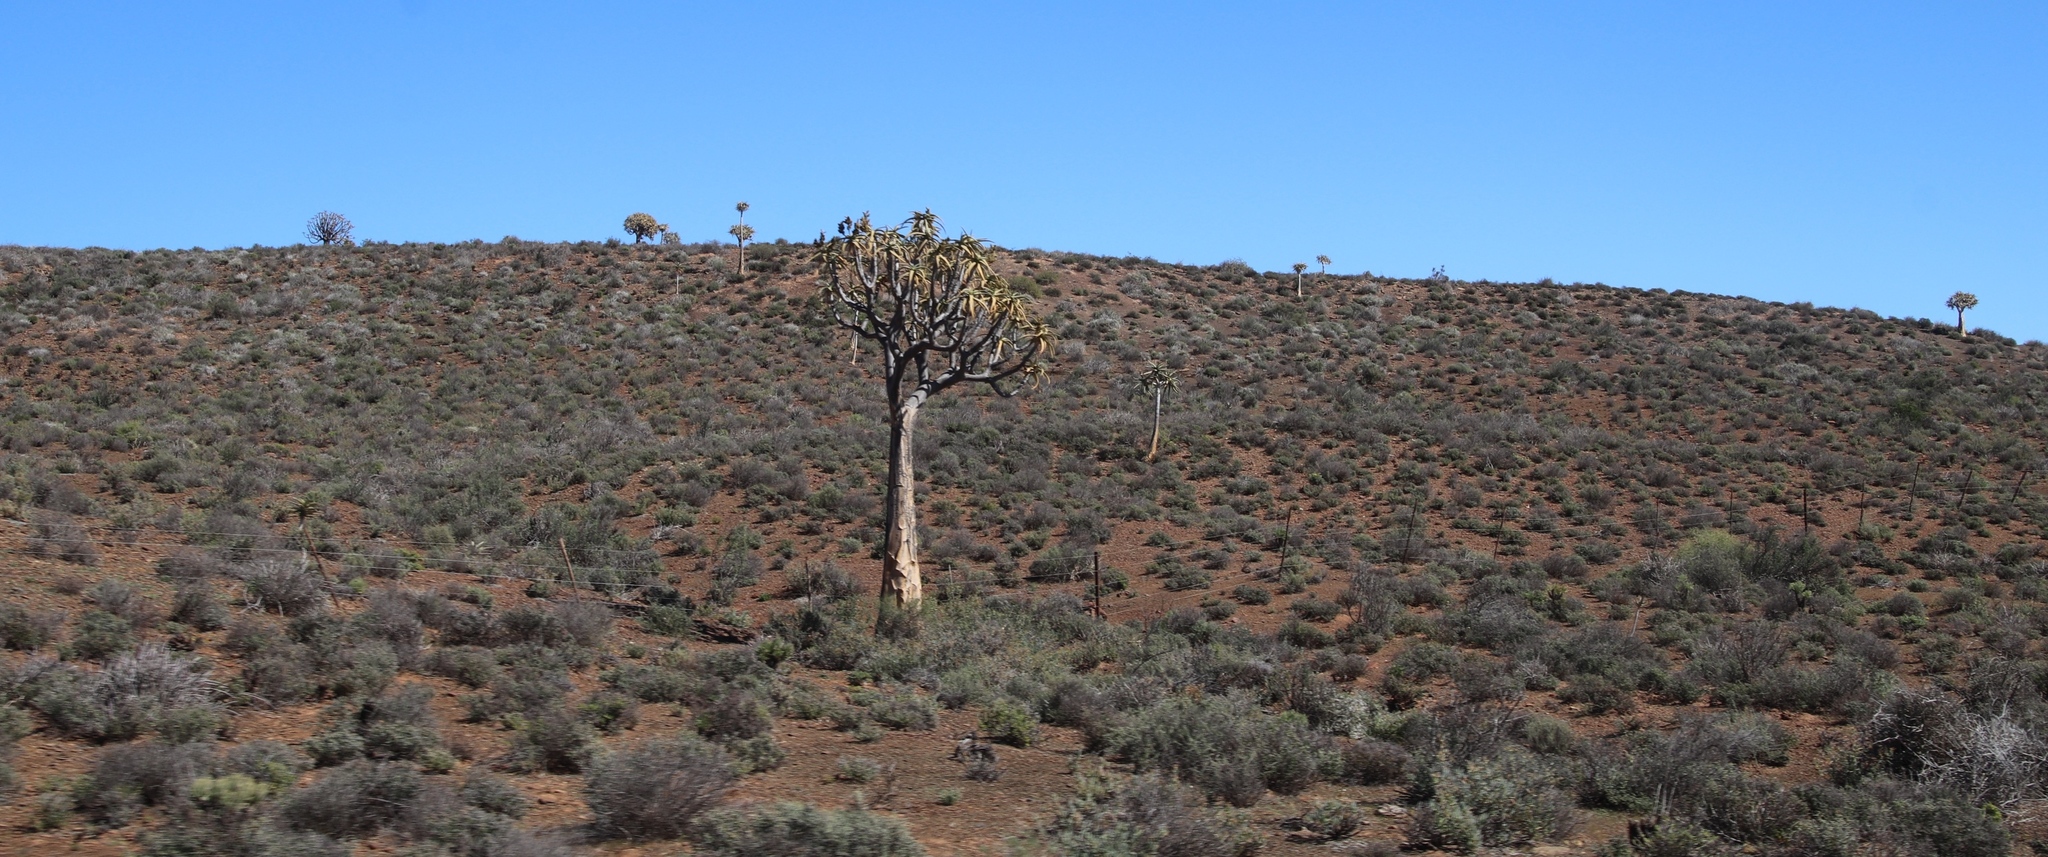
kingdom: Plantae
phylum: Tracheophyta
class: Liliopsida
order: Asparagales
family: Asphodelaceae
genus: Aloidendron
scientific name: Aloidendron dichotomum
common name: Quiver tree
